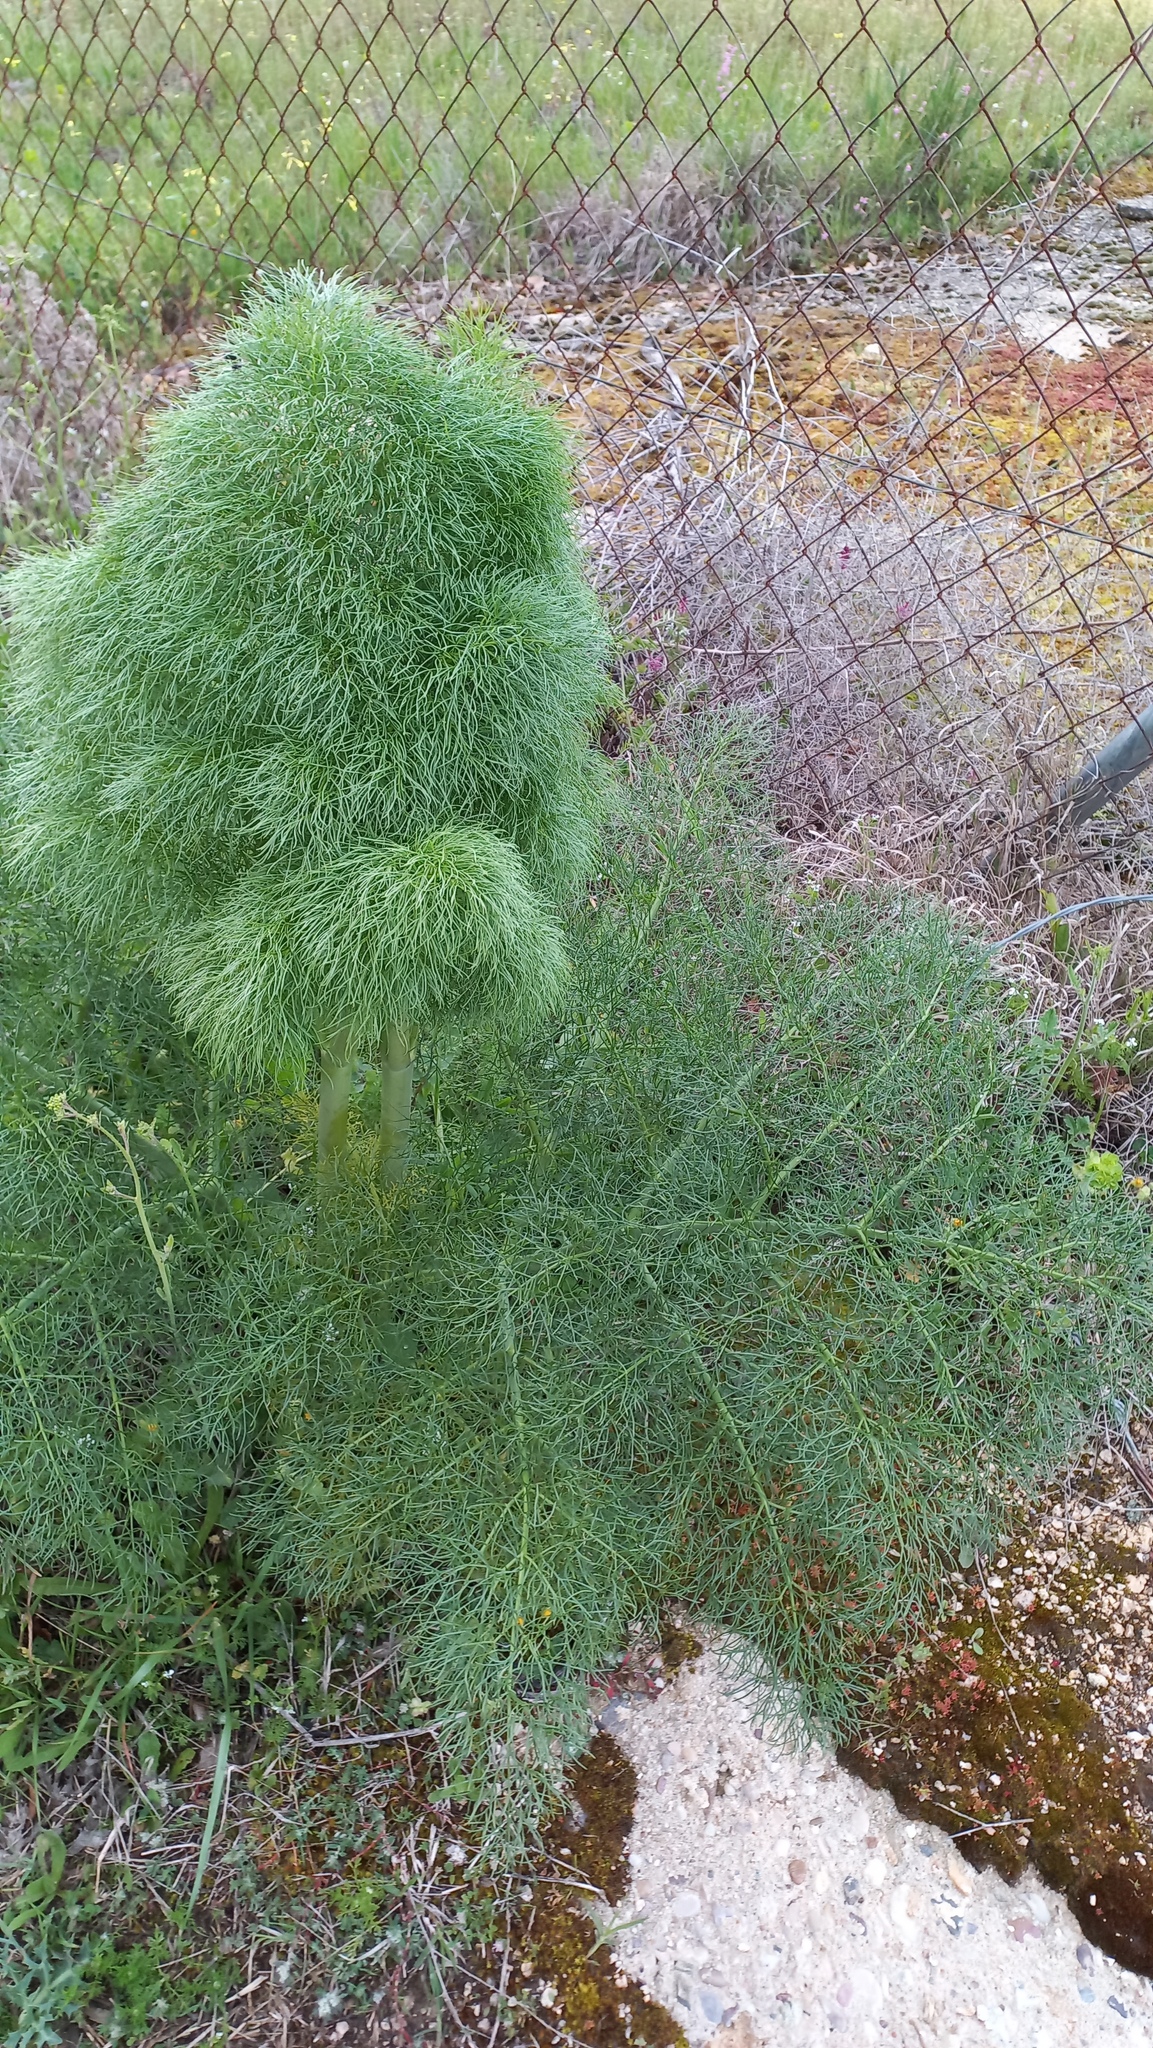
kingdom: Plantae
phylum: Tracheophyta
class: Magnoliopsida
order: Apiales
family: Apiaceae
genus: Ferula
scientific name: Ferula communis
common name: Giant fennel
